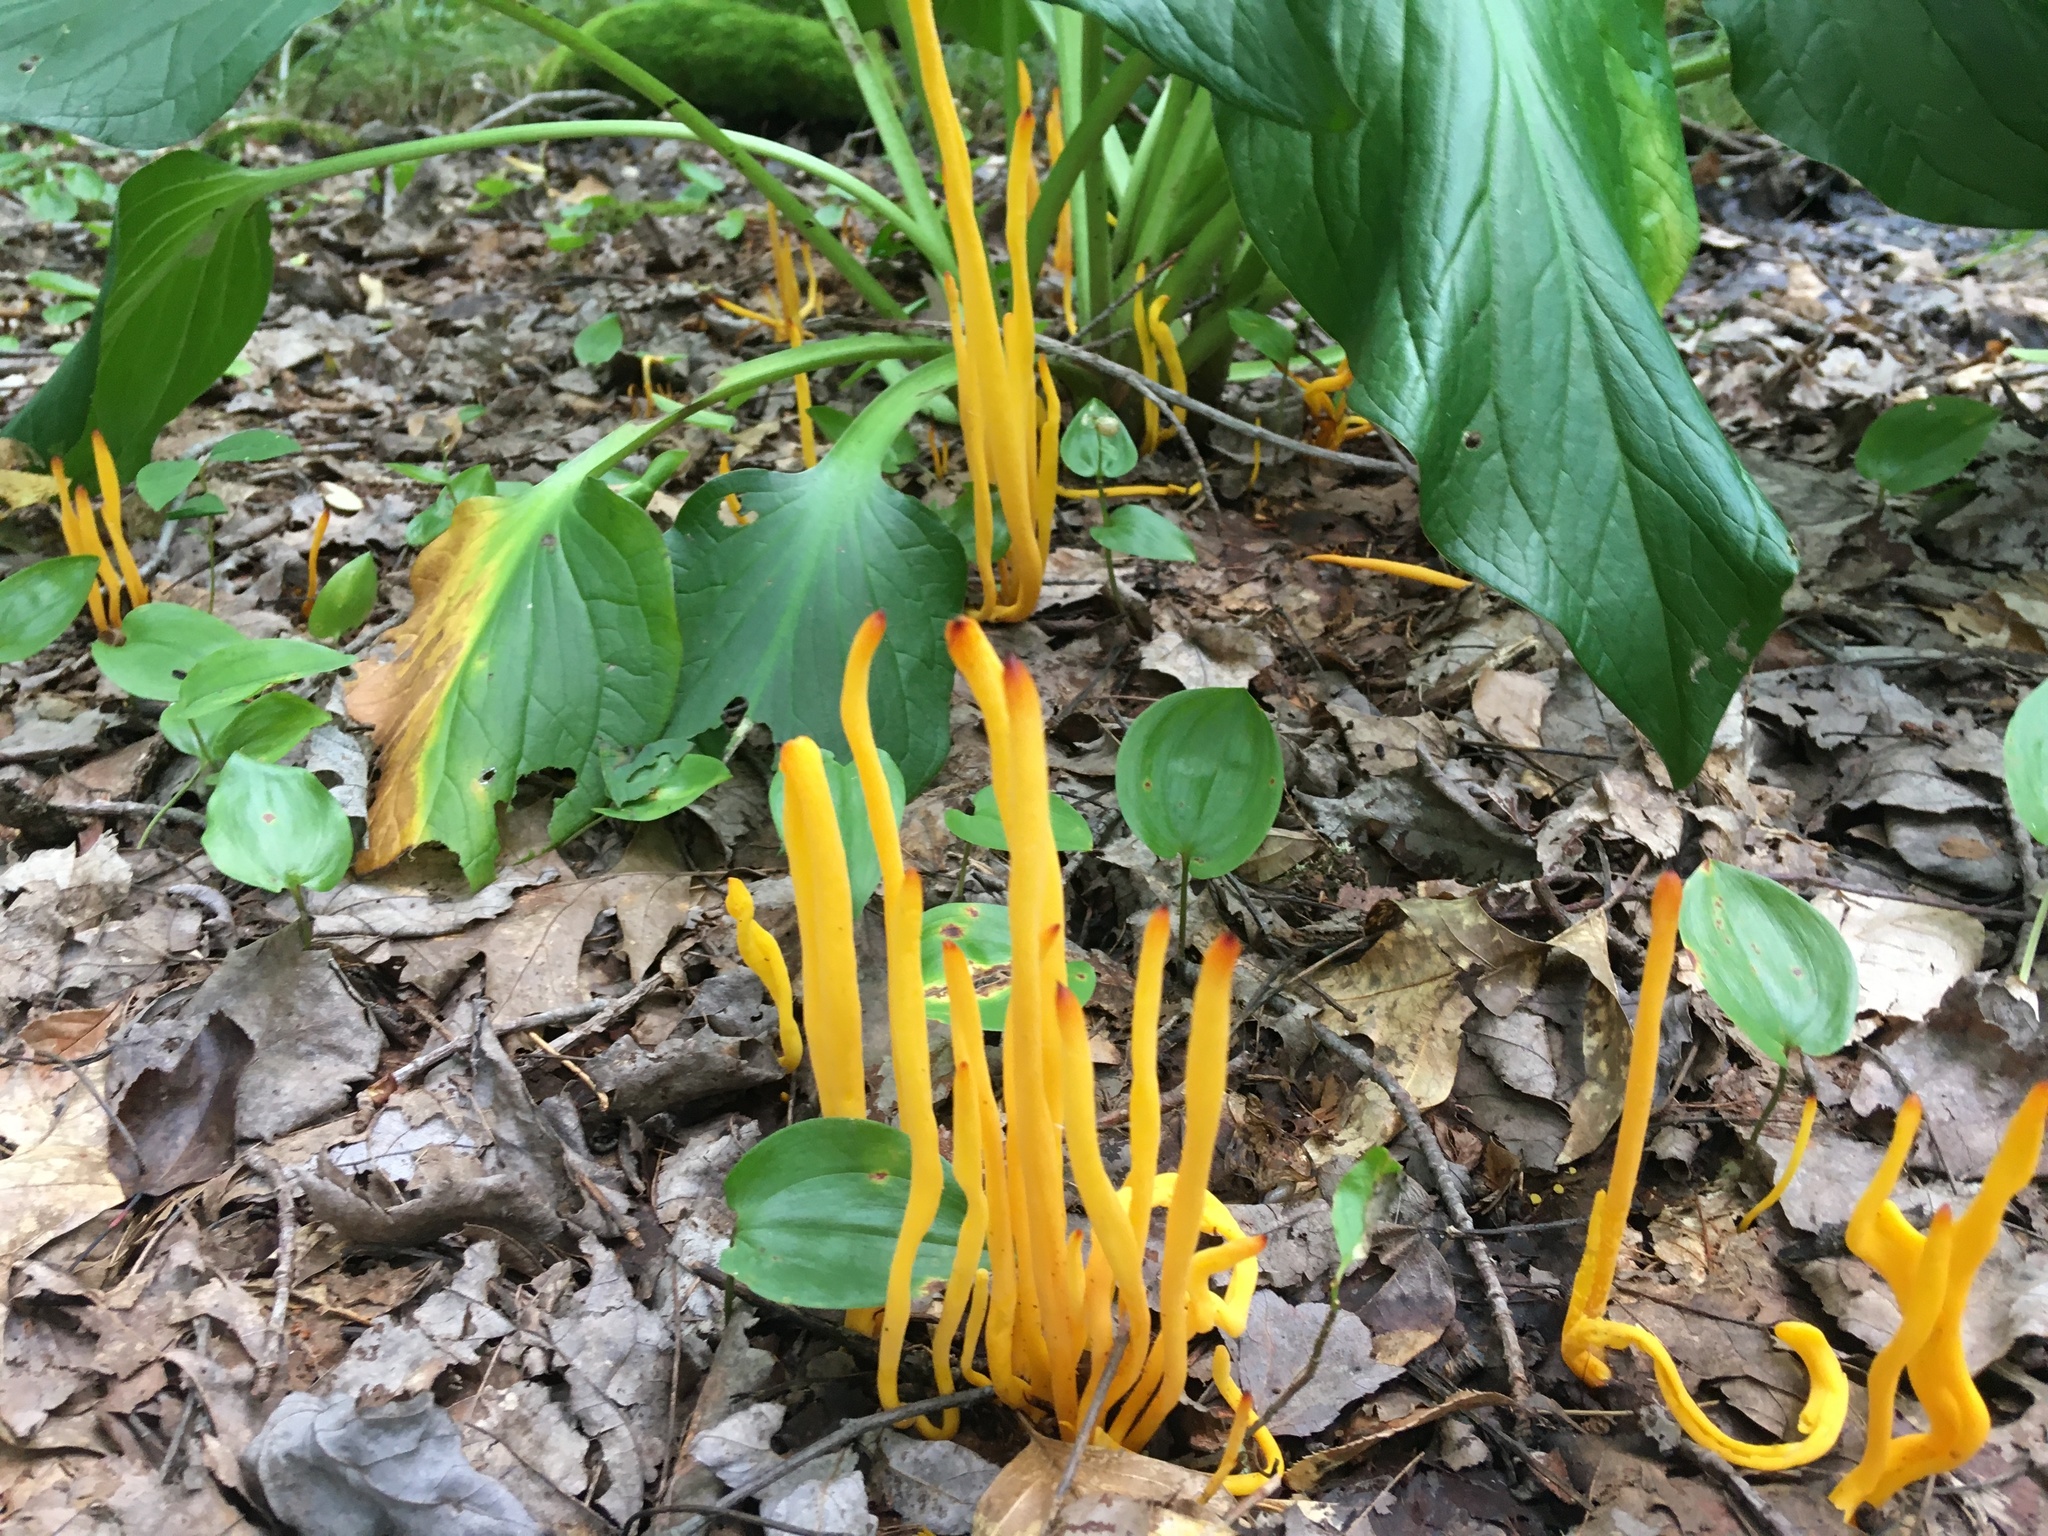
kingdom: Fungi
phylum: Basidiomycota
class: Agaricomycetes
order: Agaricales
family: Clavariaceae
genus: Clavulinopsis
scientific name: Clavulinopsis fusiformis
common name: Golden spindles
